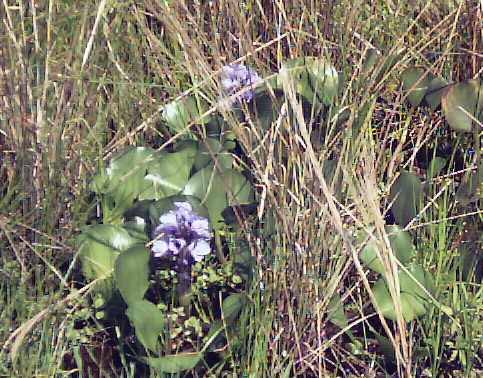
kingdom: Plantae
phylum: Tracheophyta
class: Liliopsida
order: Commelinales
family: Pontederiaceae
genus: Pontederia
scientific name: Pontederia azurea
